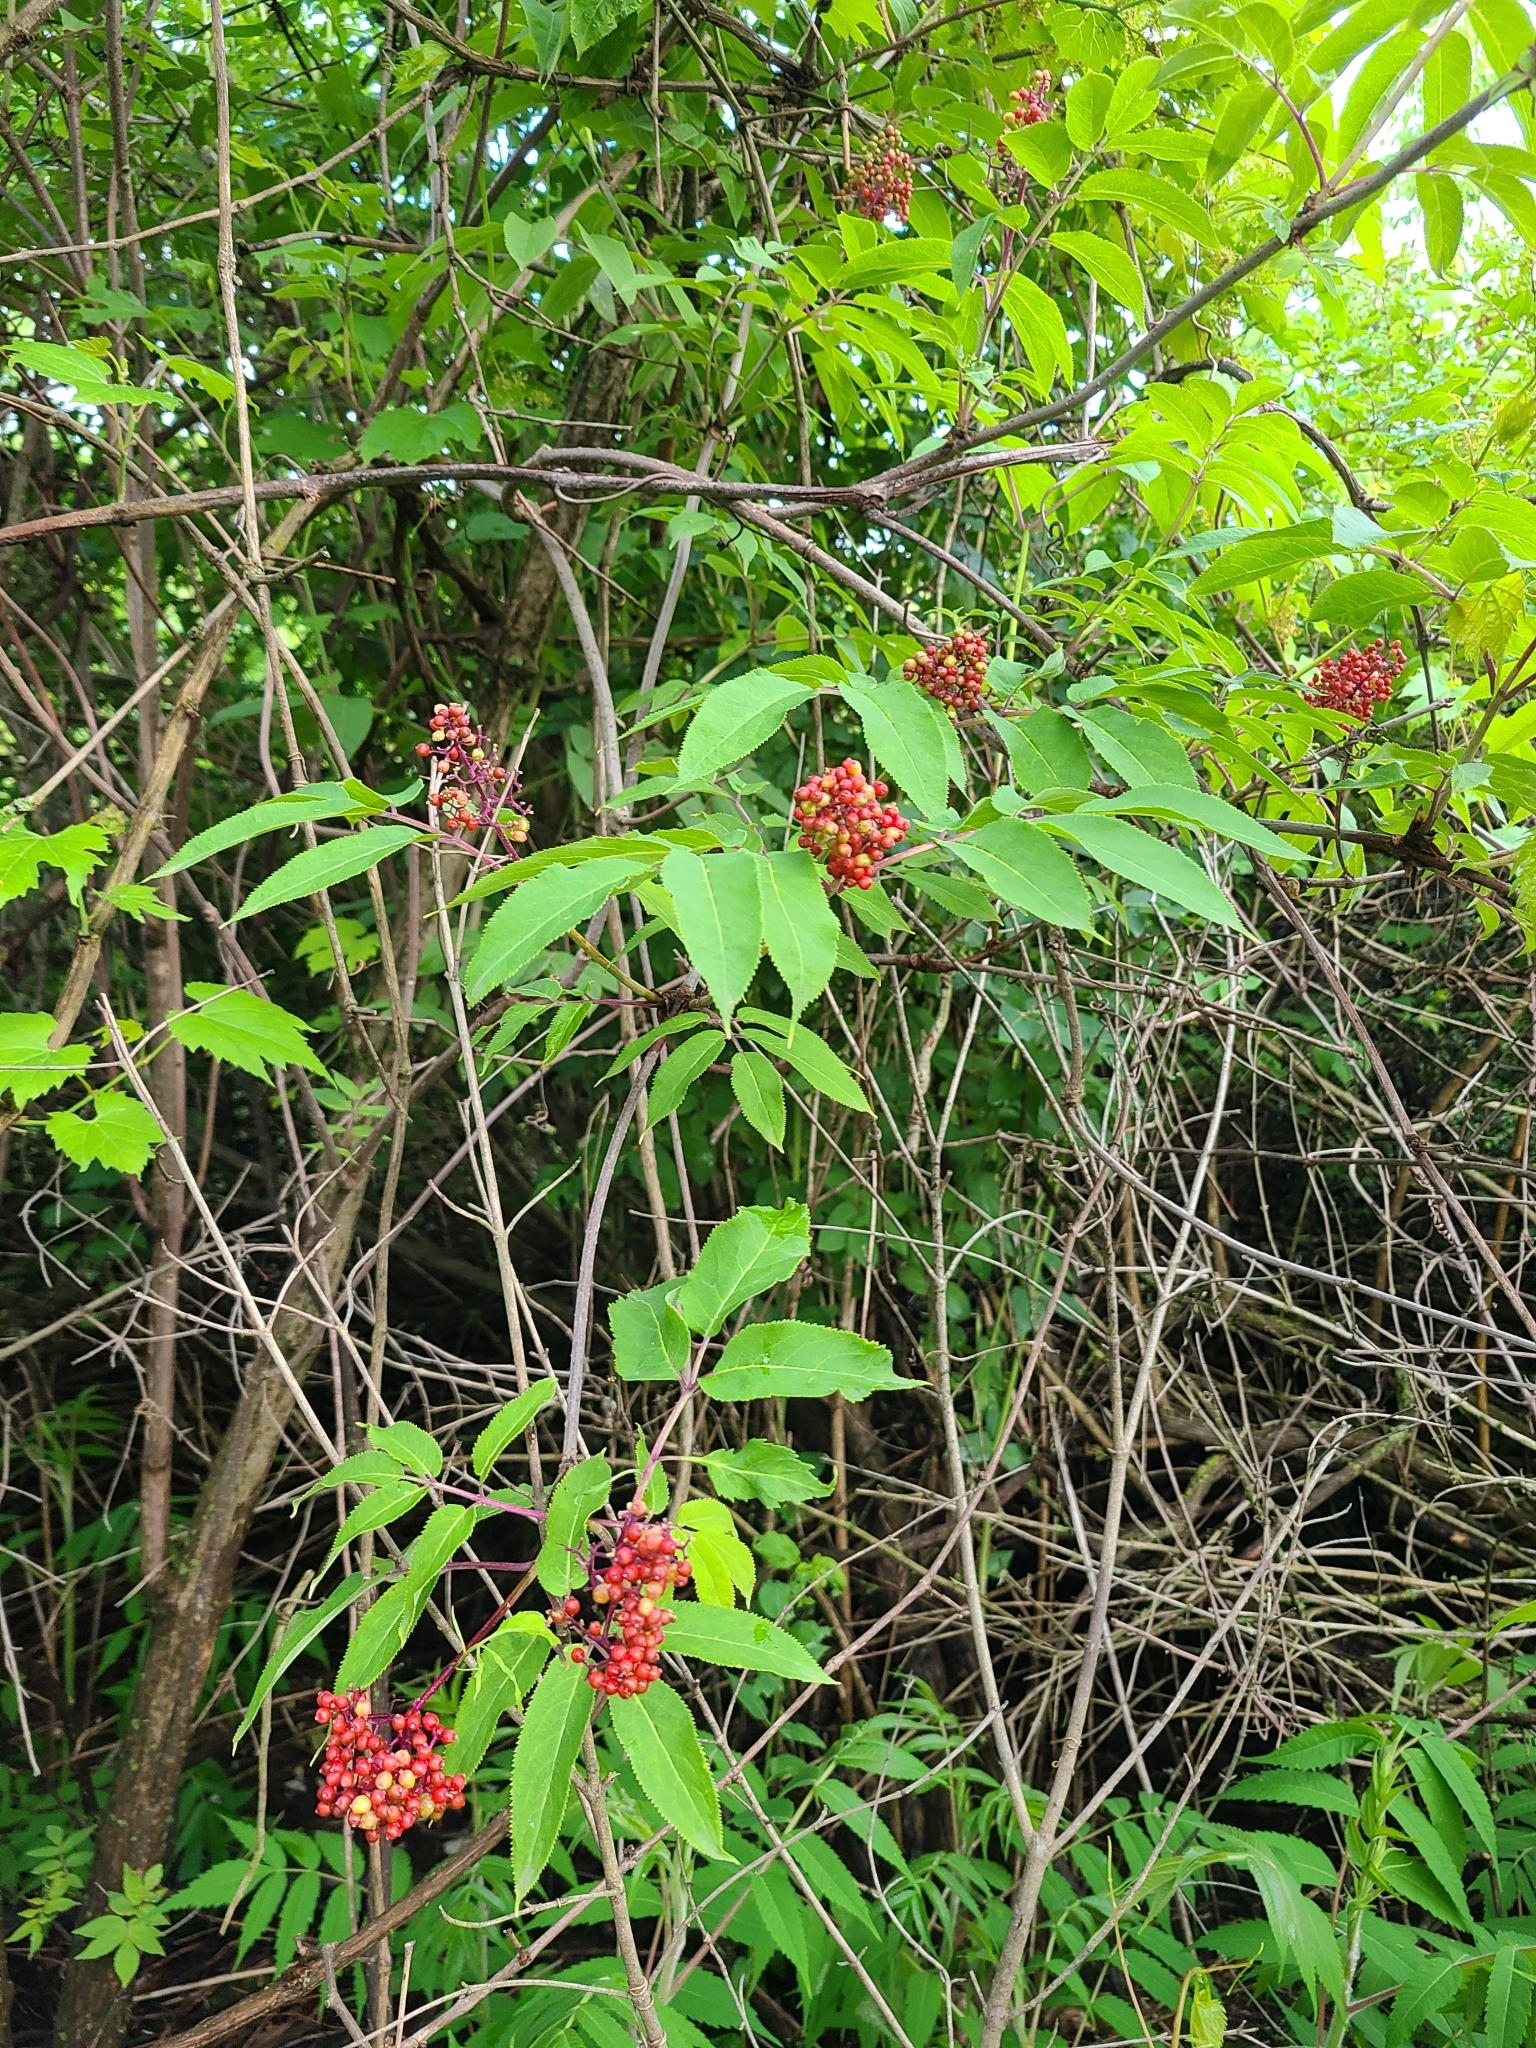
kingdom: Plantae
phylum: Tracheophyta
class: Magnoliopsida
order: Dipsacales
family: Viburnaceae
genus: Sambucus
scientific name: Sambucus racemosa
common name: Red-berried elder
